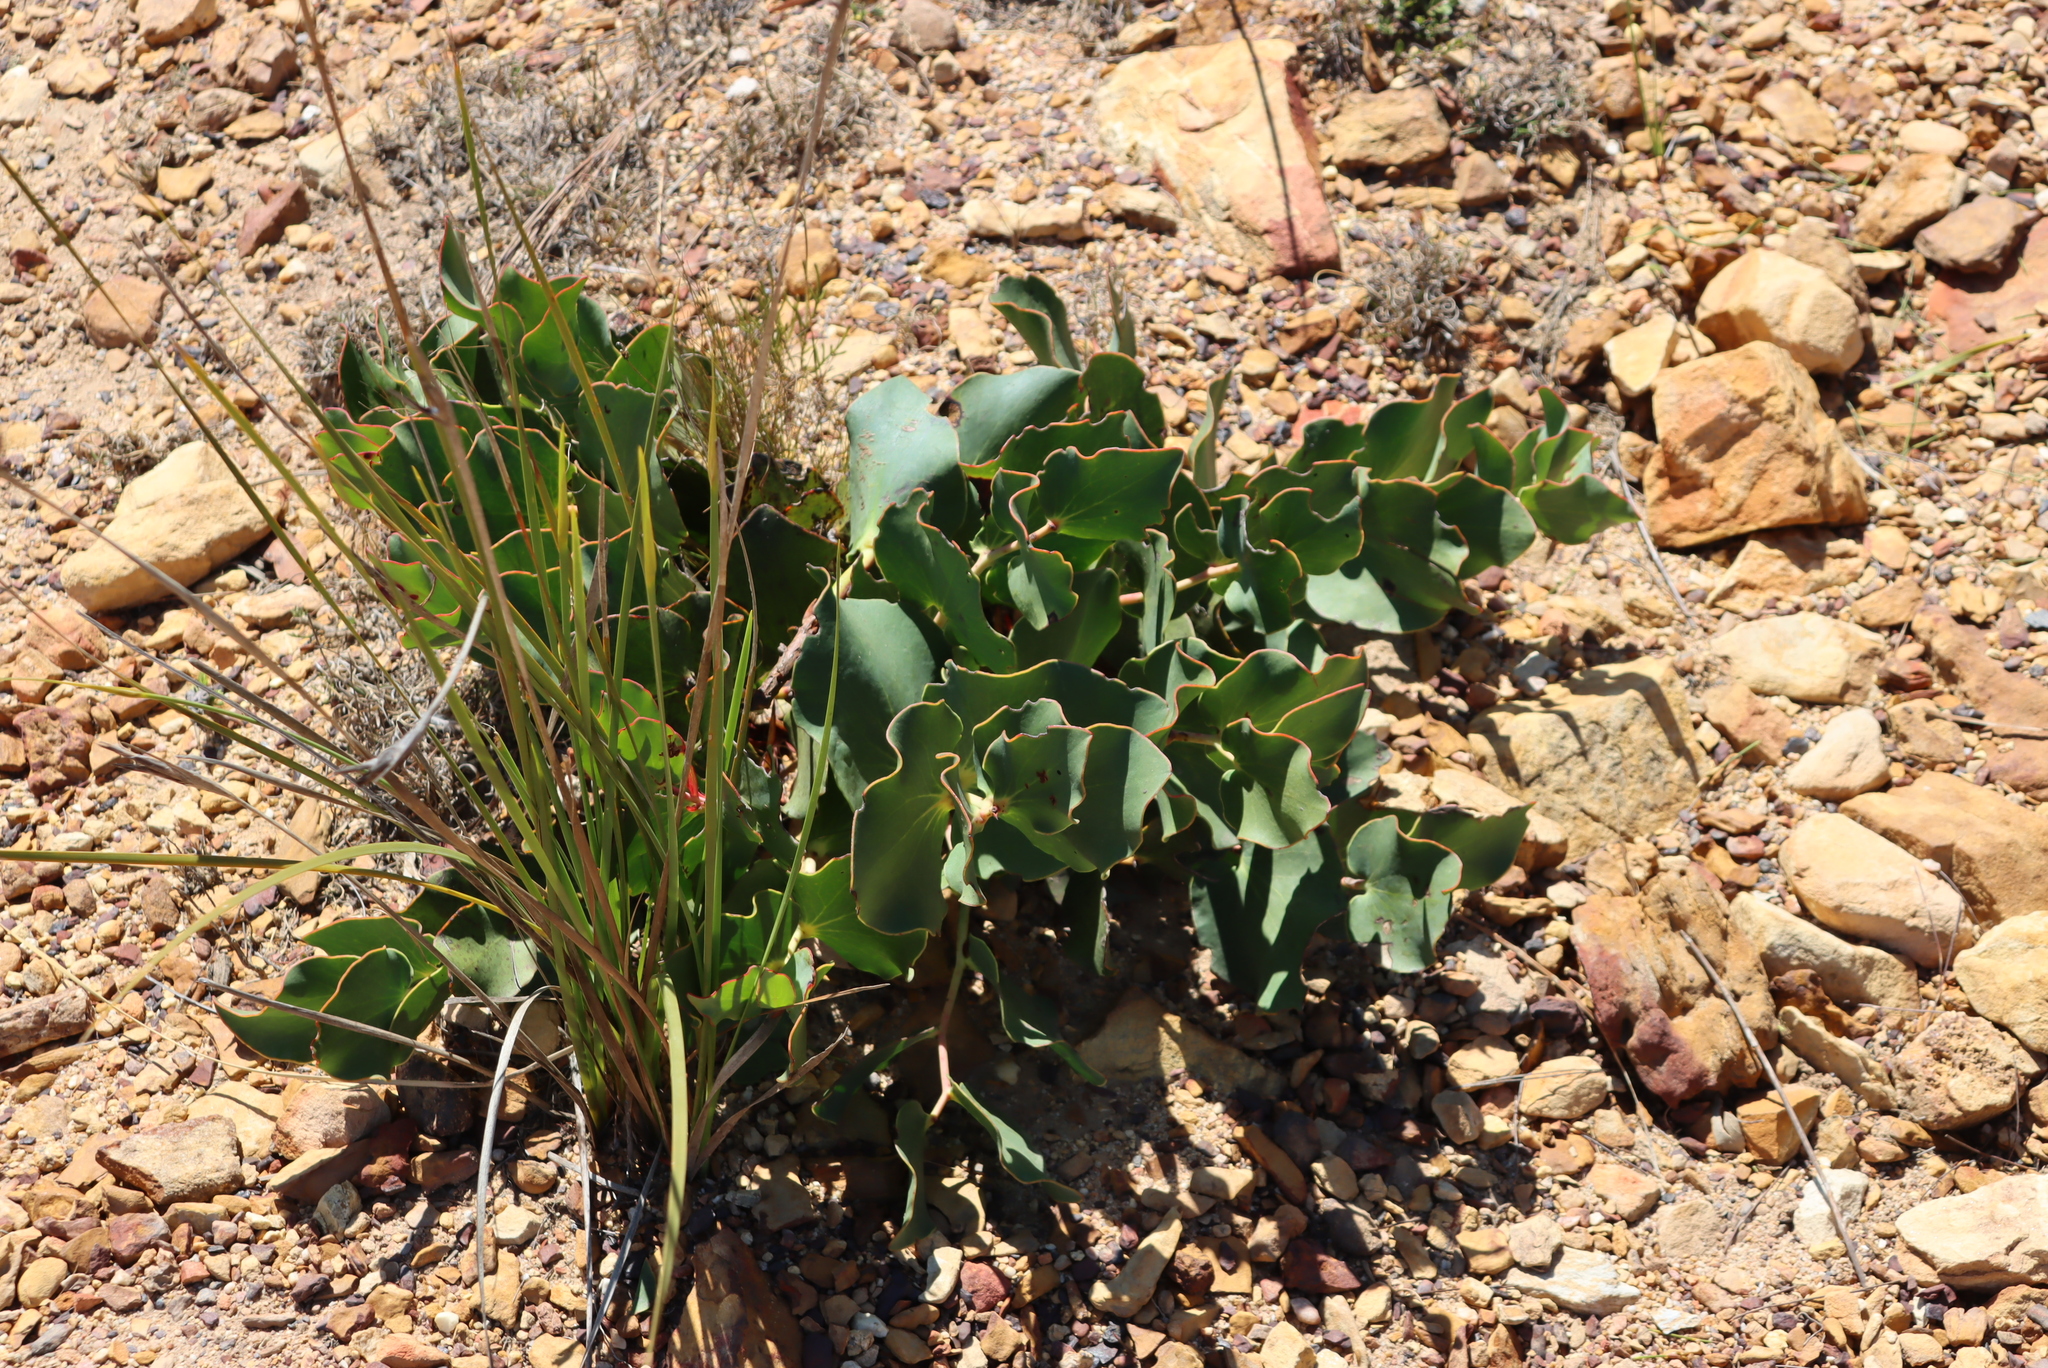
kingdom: Plantae
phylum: Tracheophyta
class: Magnoliopsida
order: Proteales
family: Proteaceae
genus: Protea
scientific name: Protea cordata
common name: Heart-leaf sugarbush
